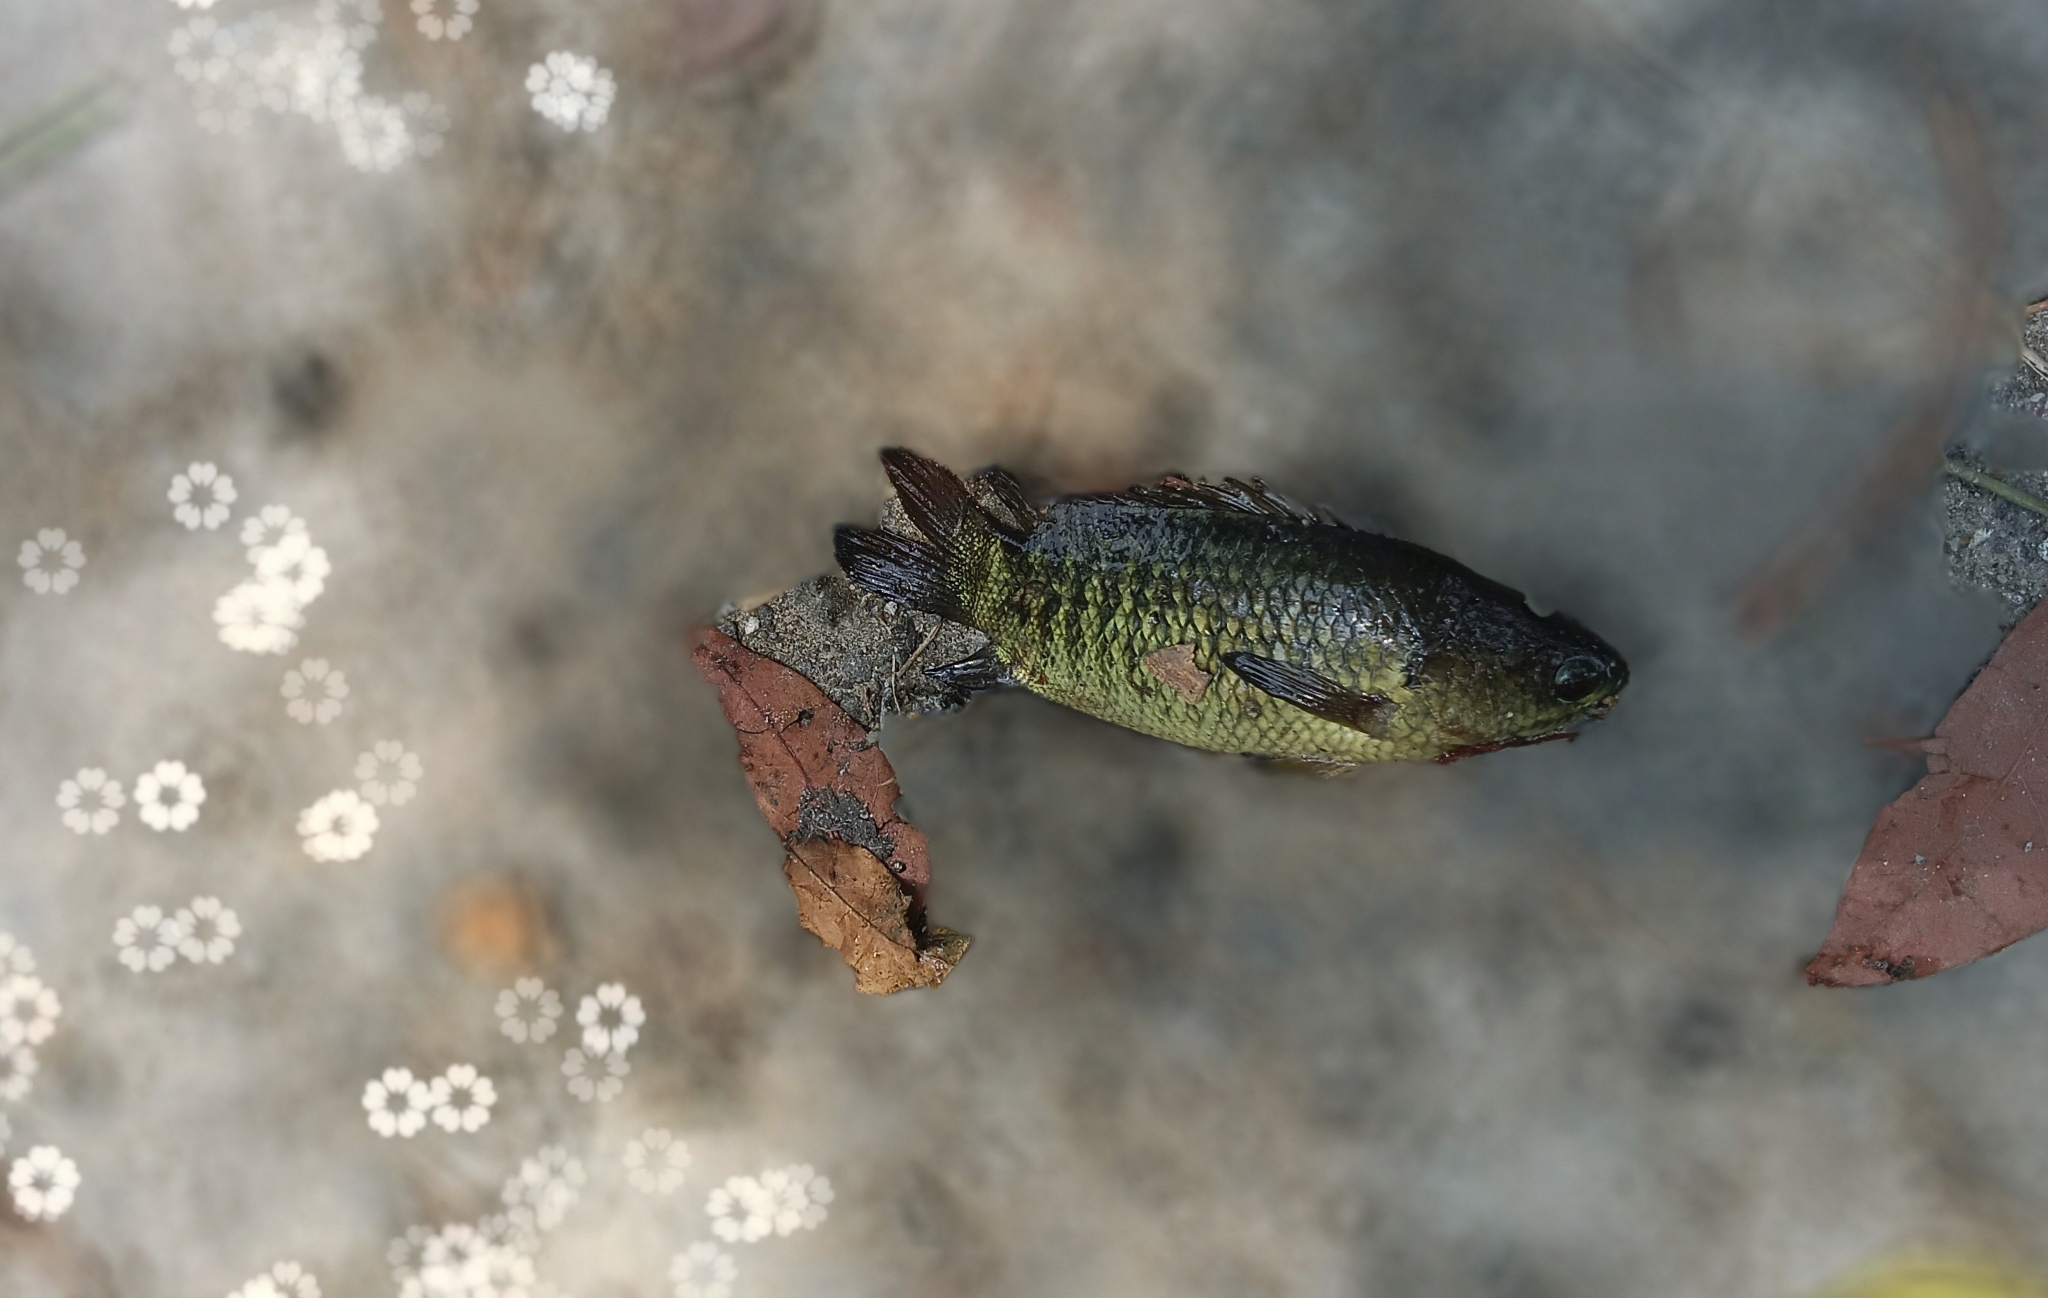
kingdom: Animalia
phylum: Chordata
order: Perciformes
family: Anabantidae
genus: Anabas
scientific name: Anabas testudineus
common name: Climbing perch
